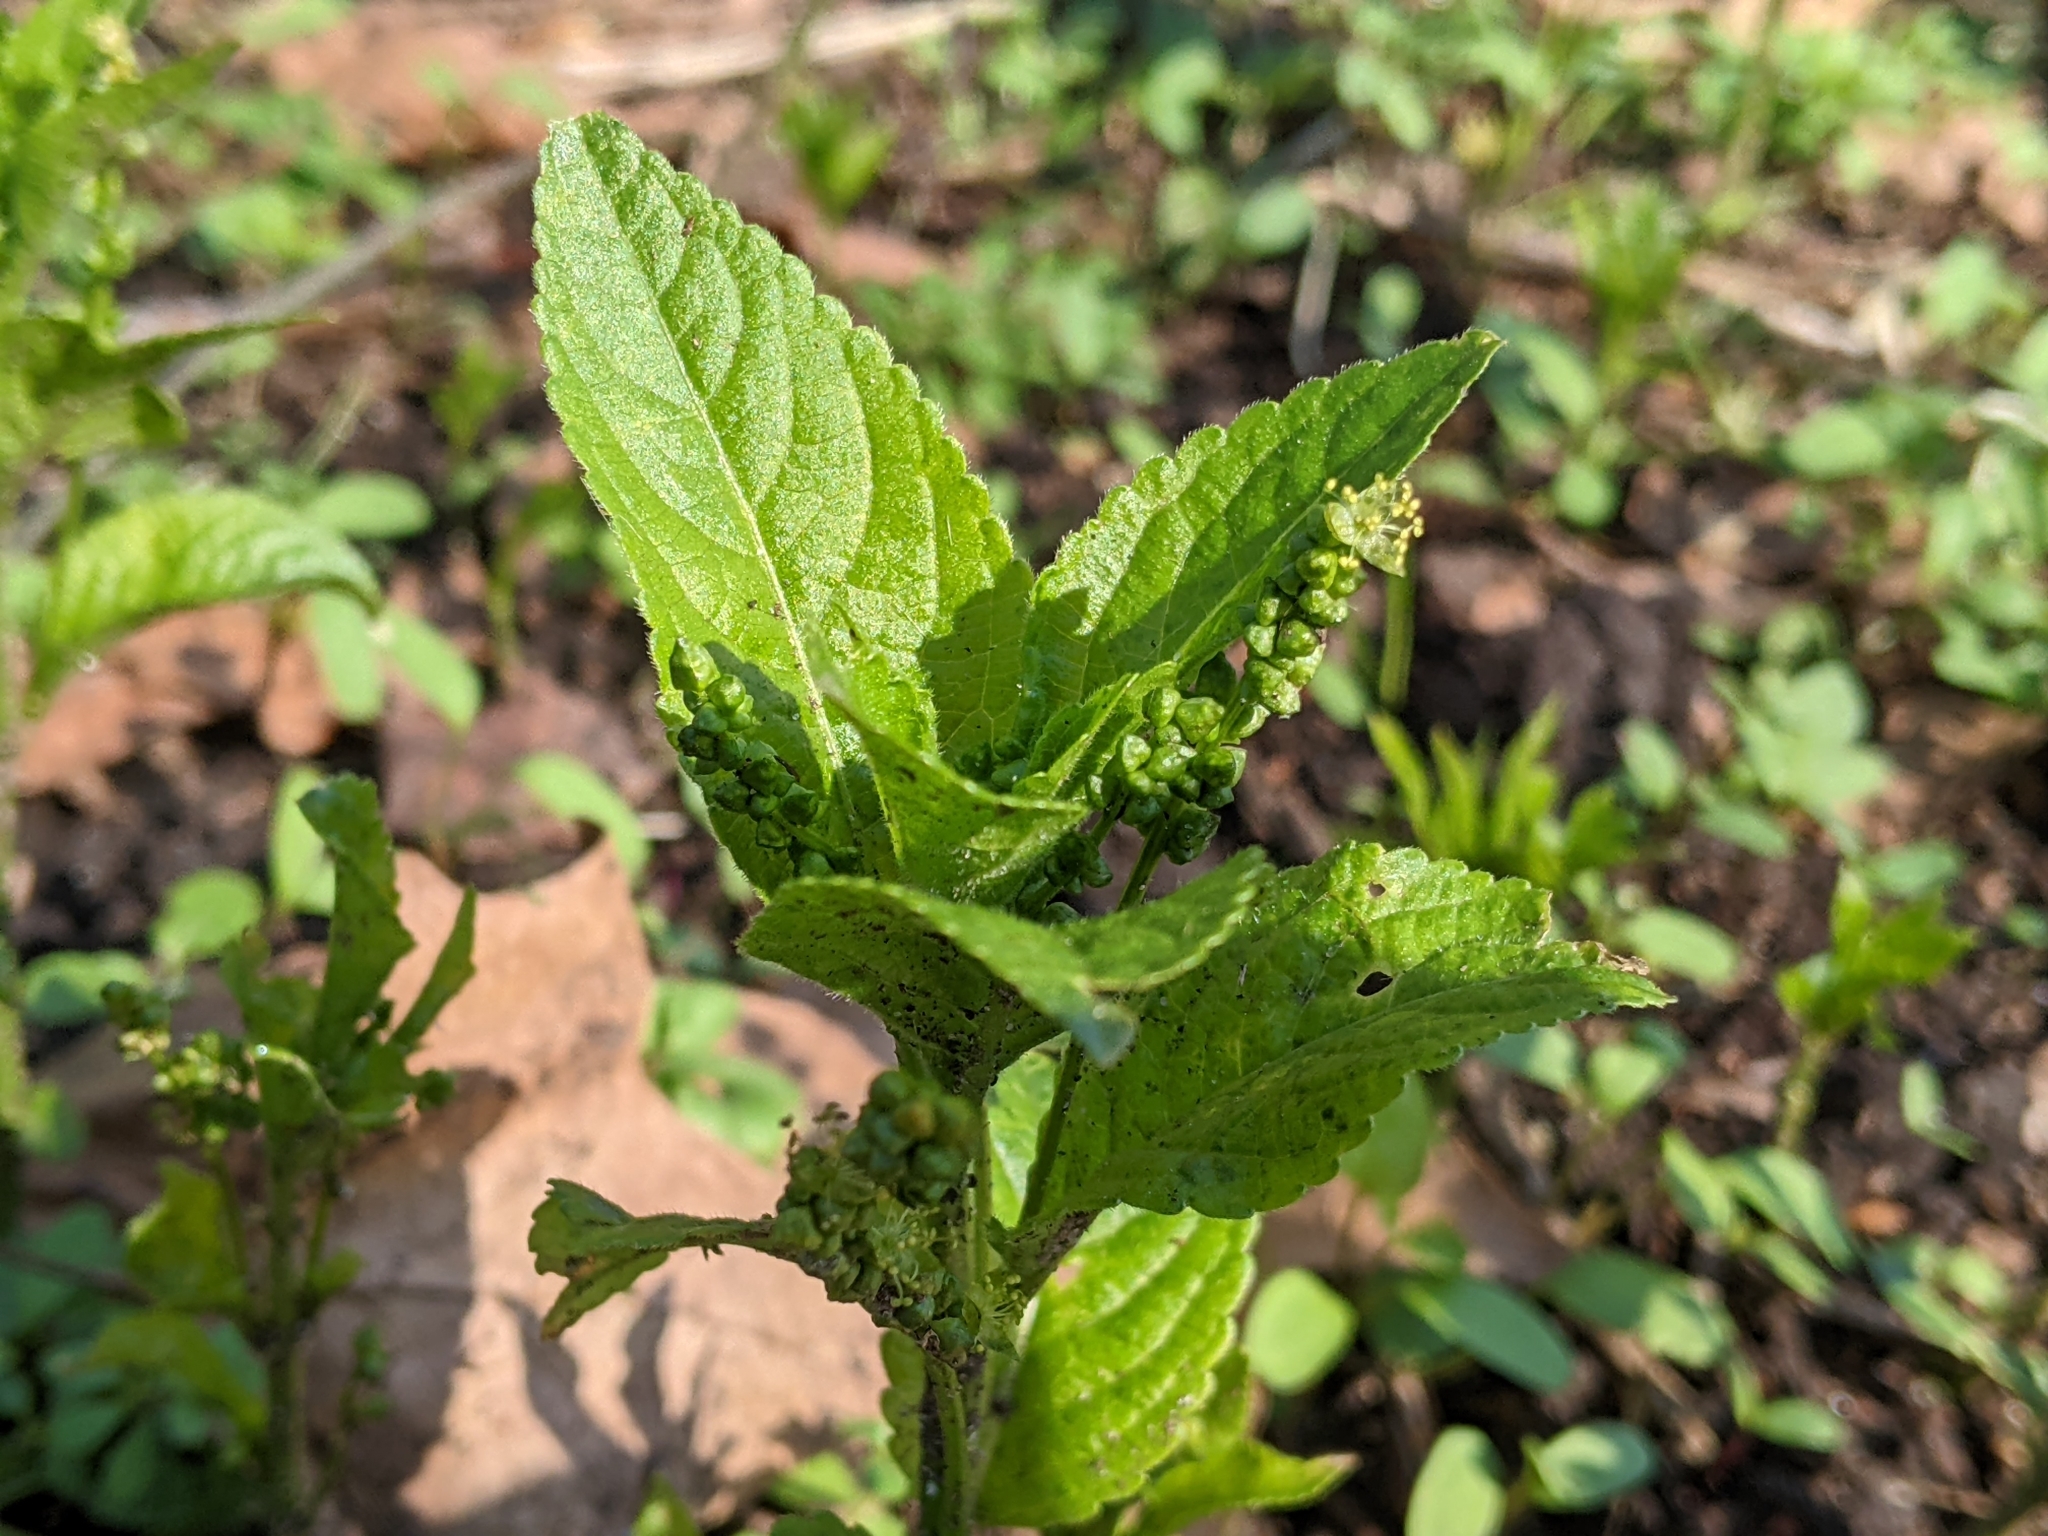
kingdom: Plantae
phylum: Tracheophyta
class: Magnoliopsida
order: Malpighiales
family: Euphorbiaceae
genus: Mercurialis
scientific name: Mercurialis perennis
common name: Dog mercury
